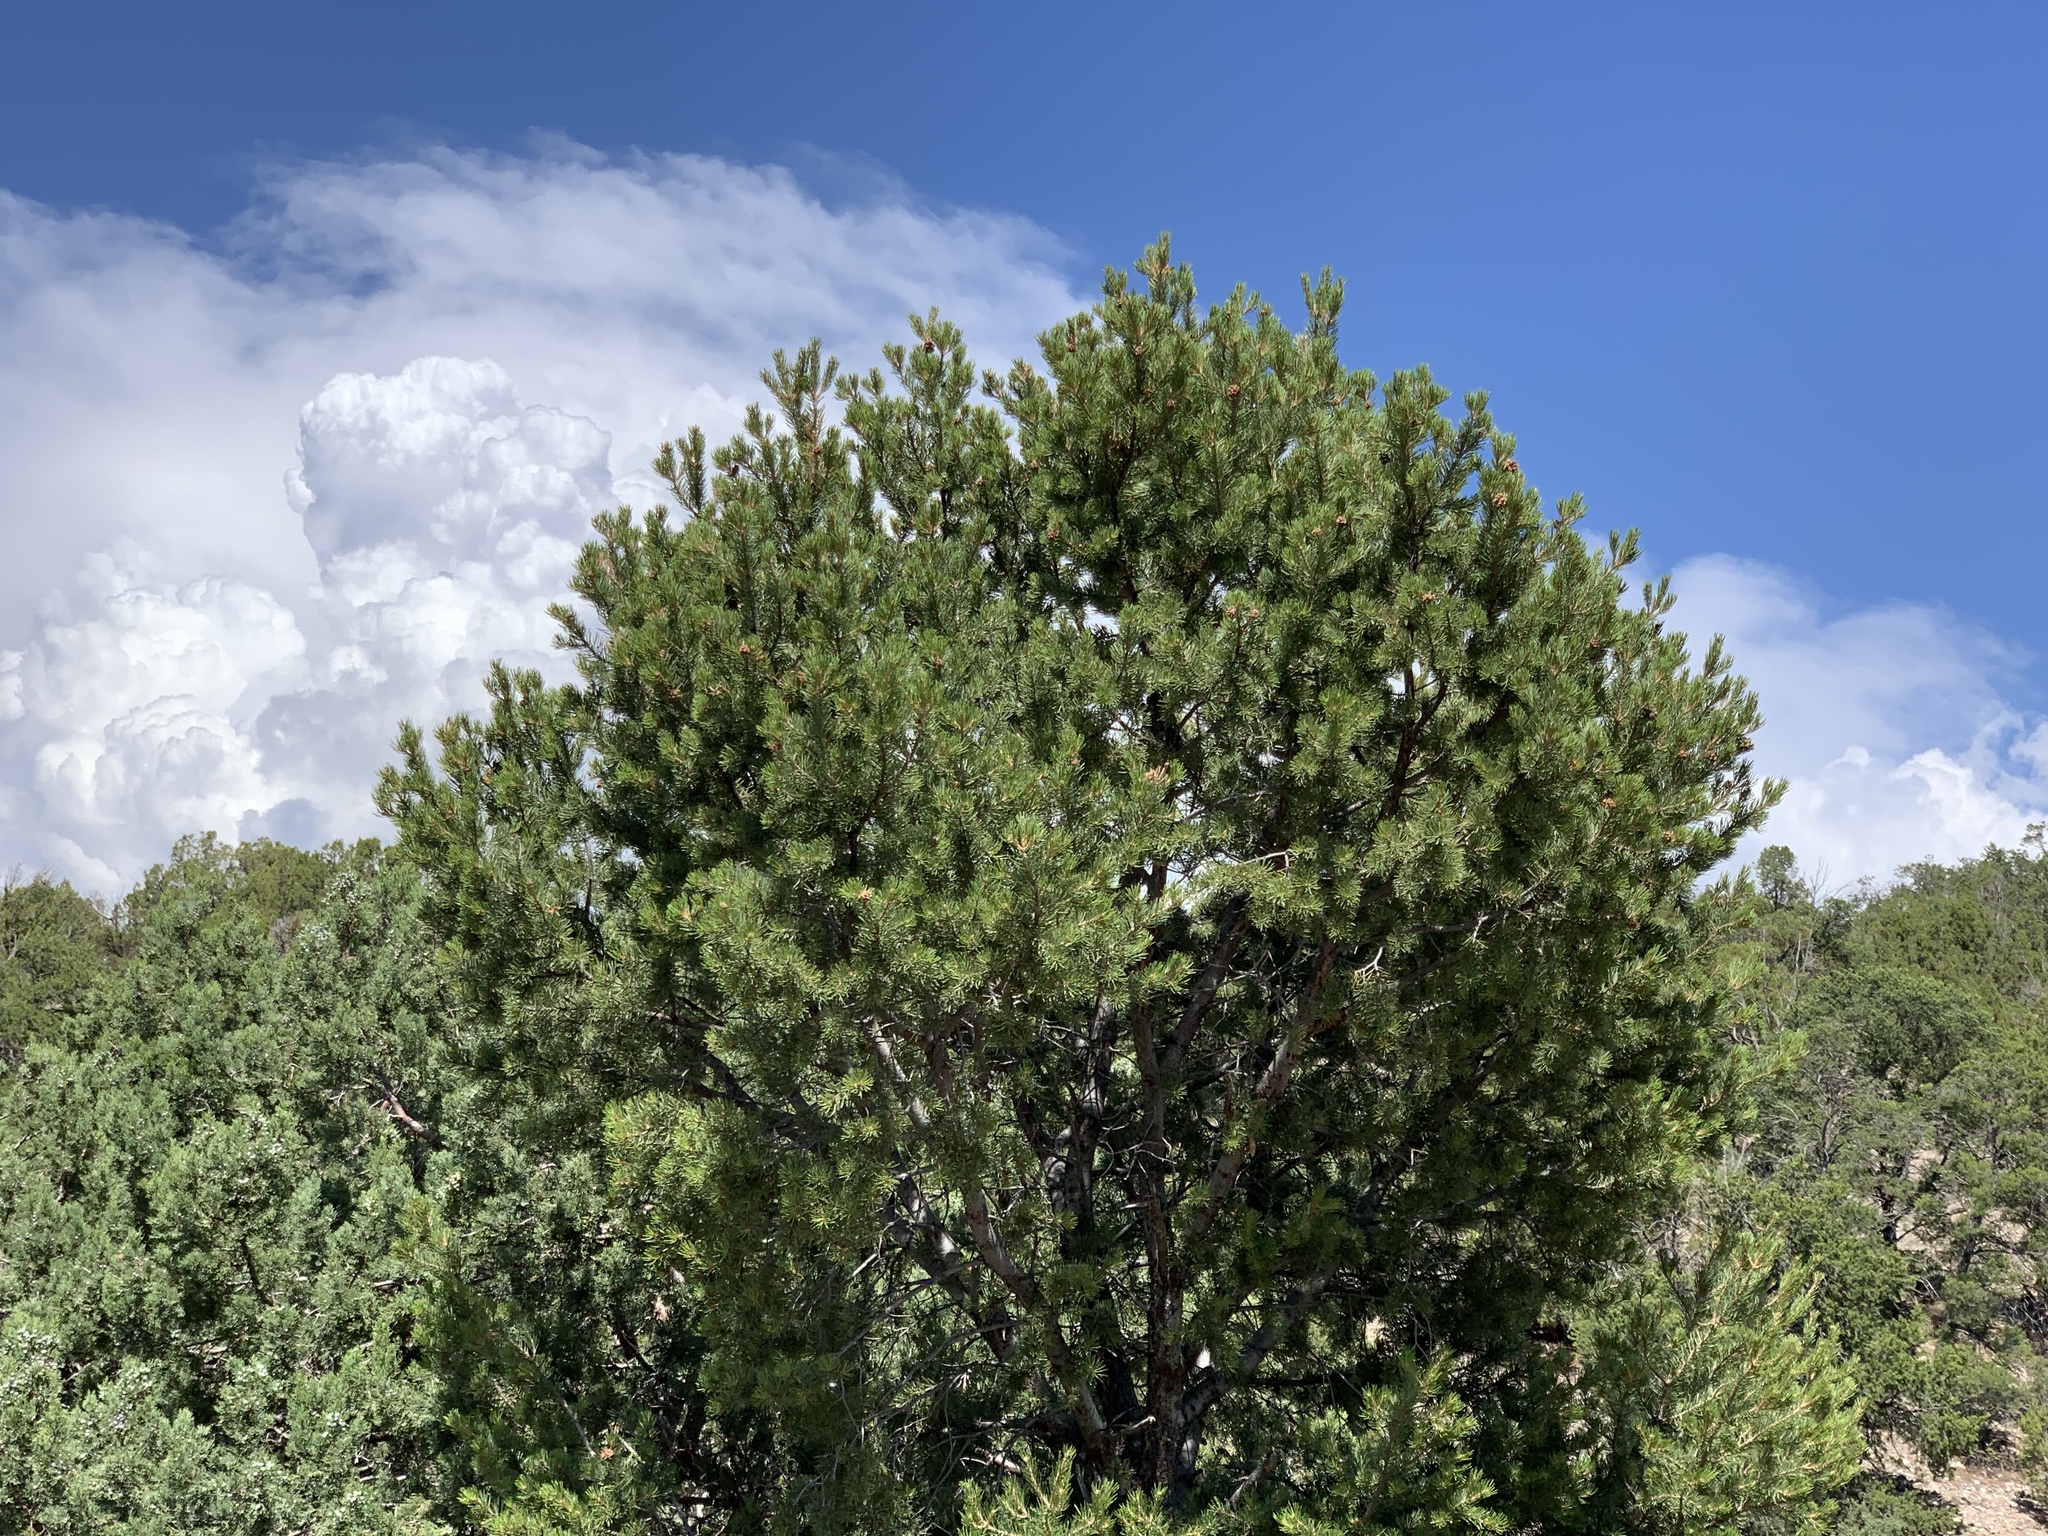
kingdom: Plantae
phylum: Tracheophyta
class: Pinopsida
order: Pinales
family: Pinaceae
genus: Pinus
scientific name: Pinus edulis
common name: Colorado pinyon
